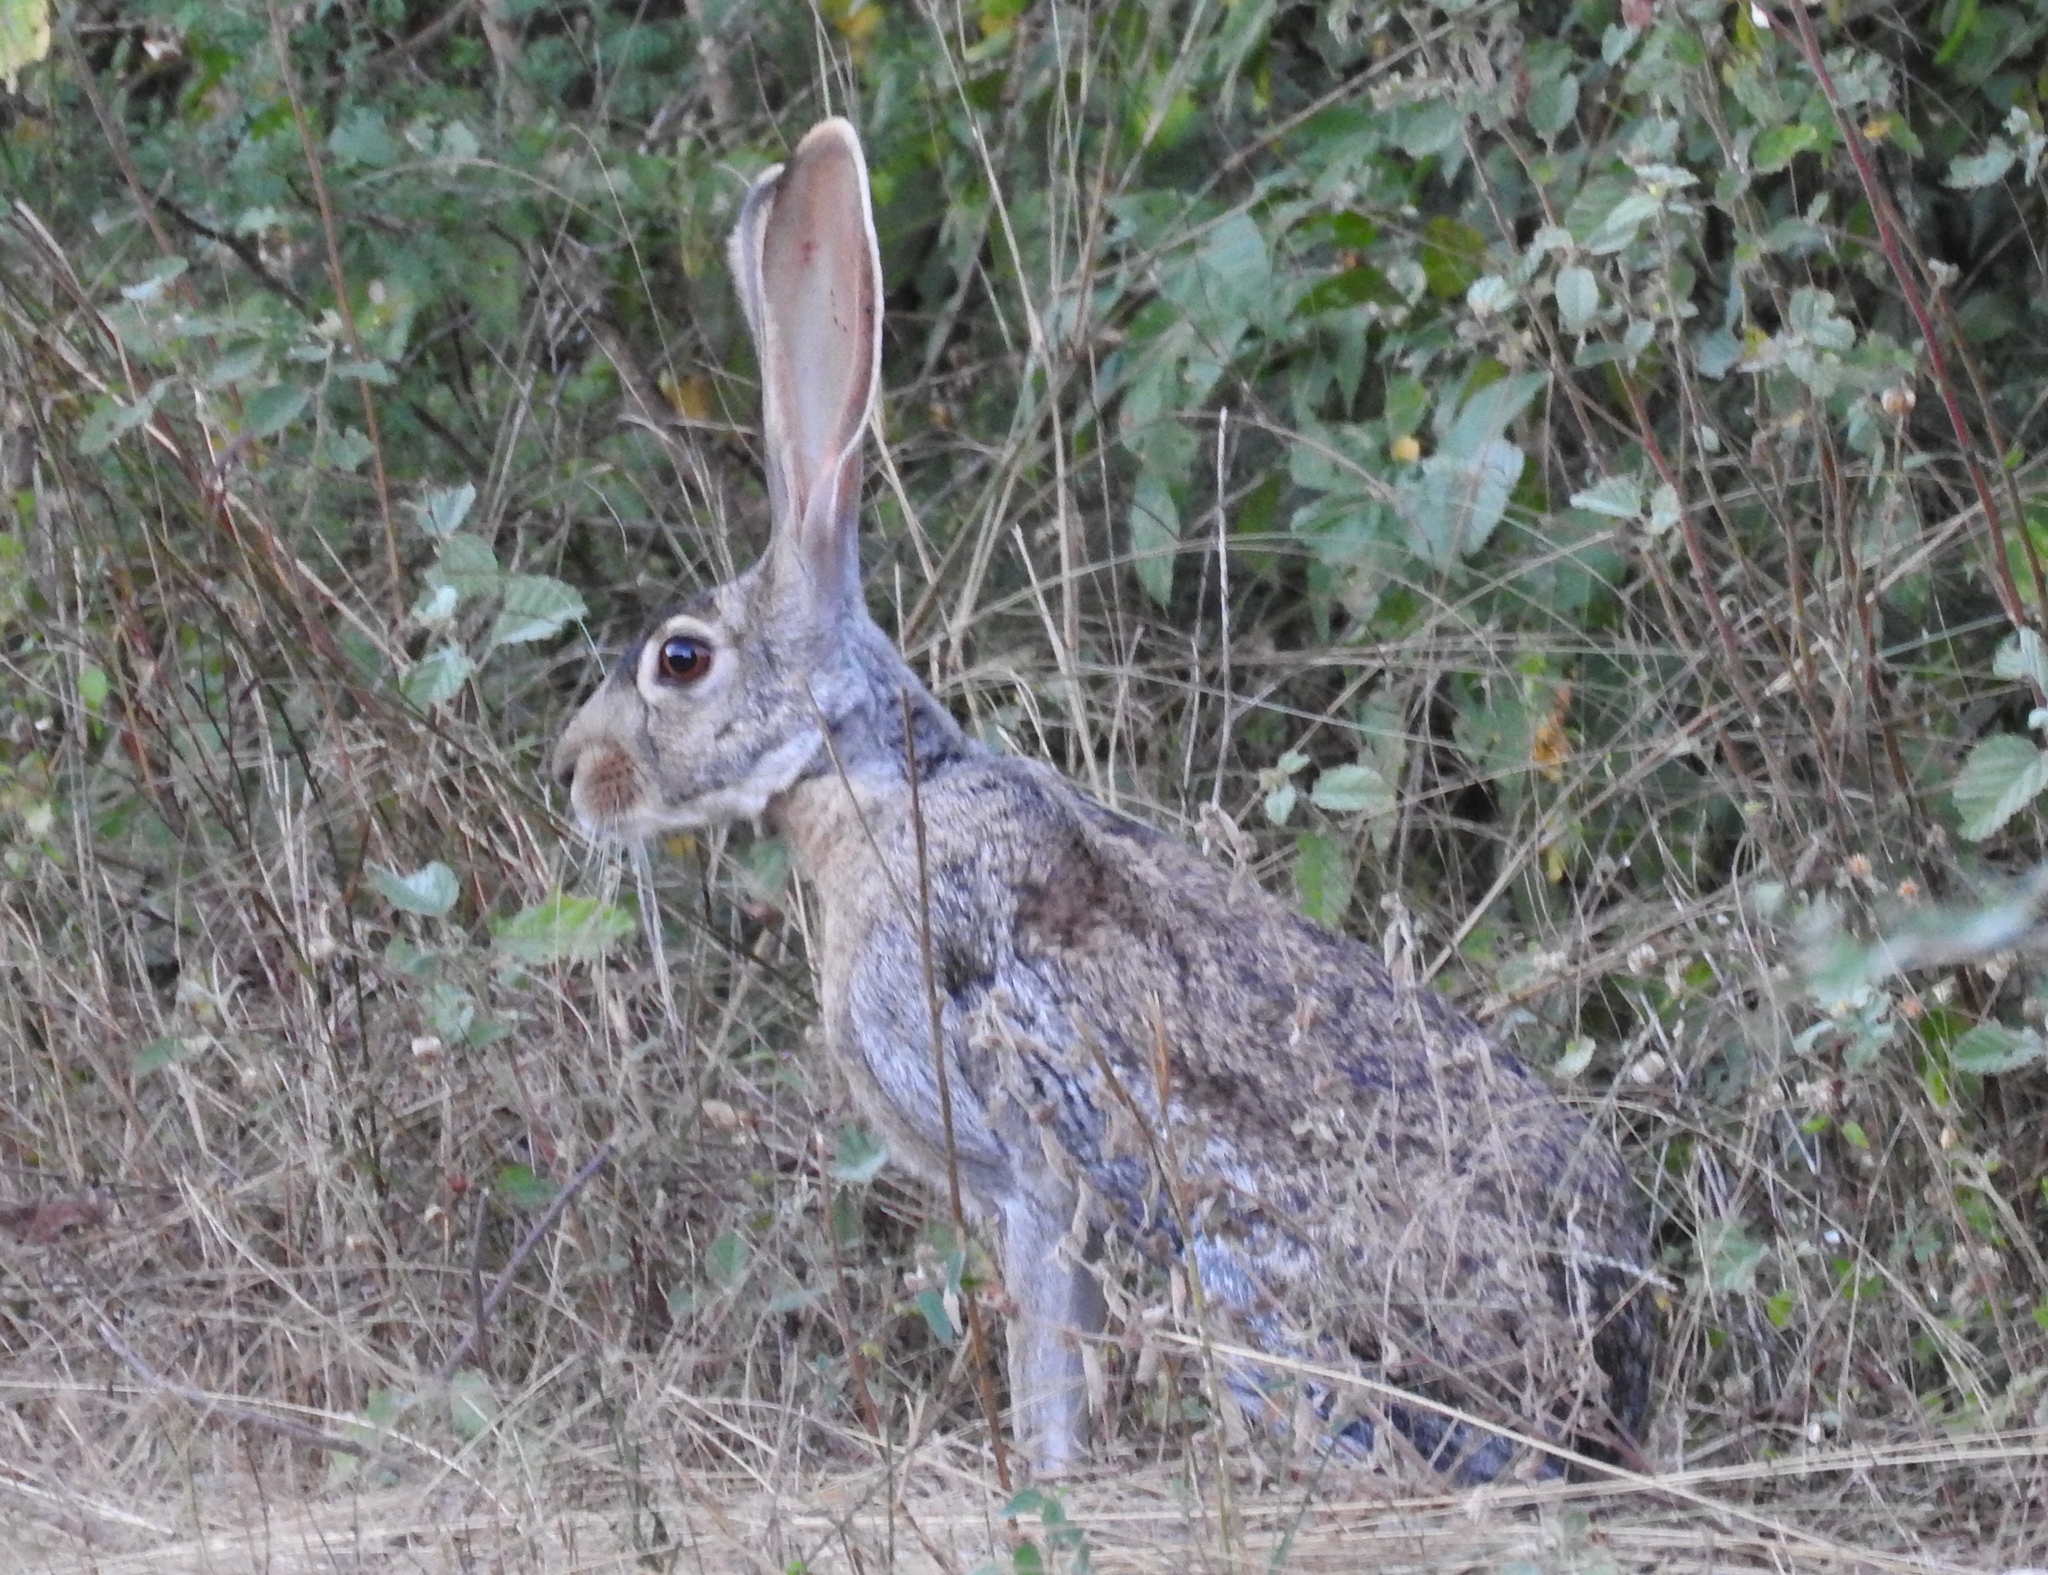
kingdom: Animalia
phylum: Chordata
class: Mammalia
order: Lagomorpha
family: Leporidae
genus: Lepus
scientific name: Lepus alleni
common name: Antelope jackrabbit
